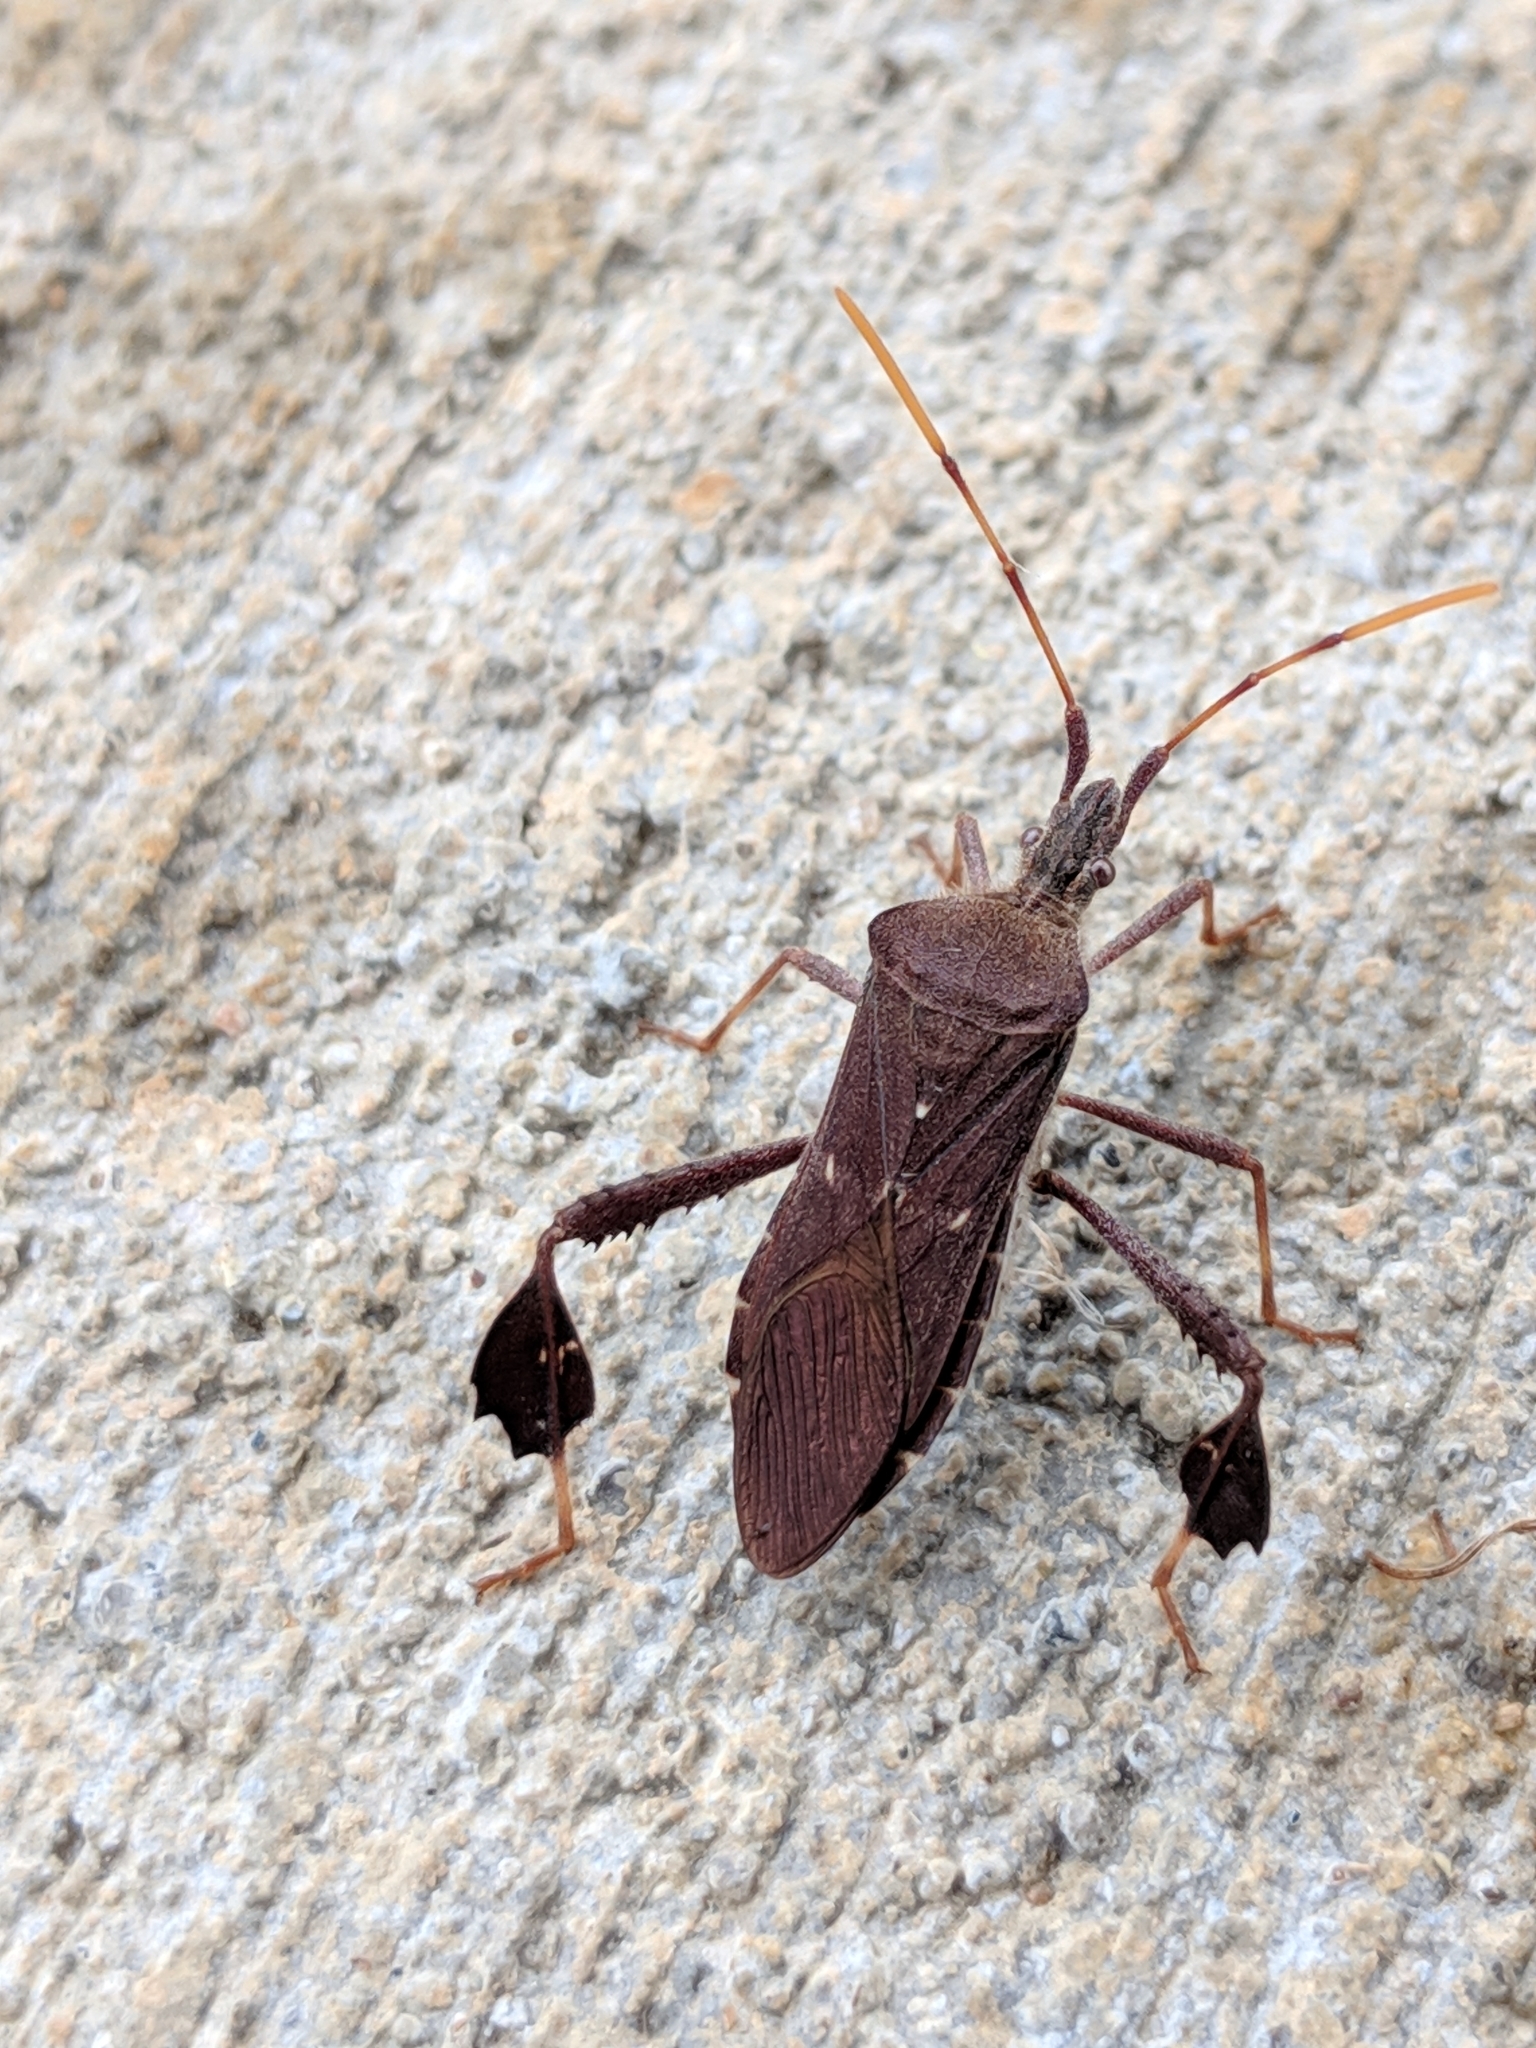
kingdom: Animalia
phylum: Arthropoda
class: Insecta
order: Hemiptera
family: Coreidae
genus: Leptoglossus
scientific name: Leptoglossus oppositus
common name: Northern leaf-footed bug
